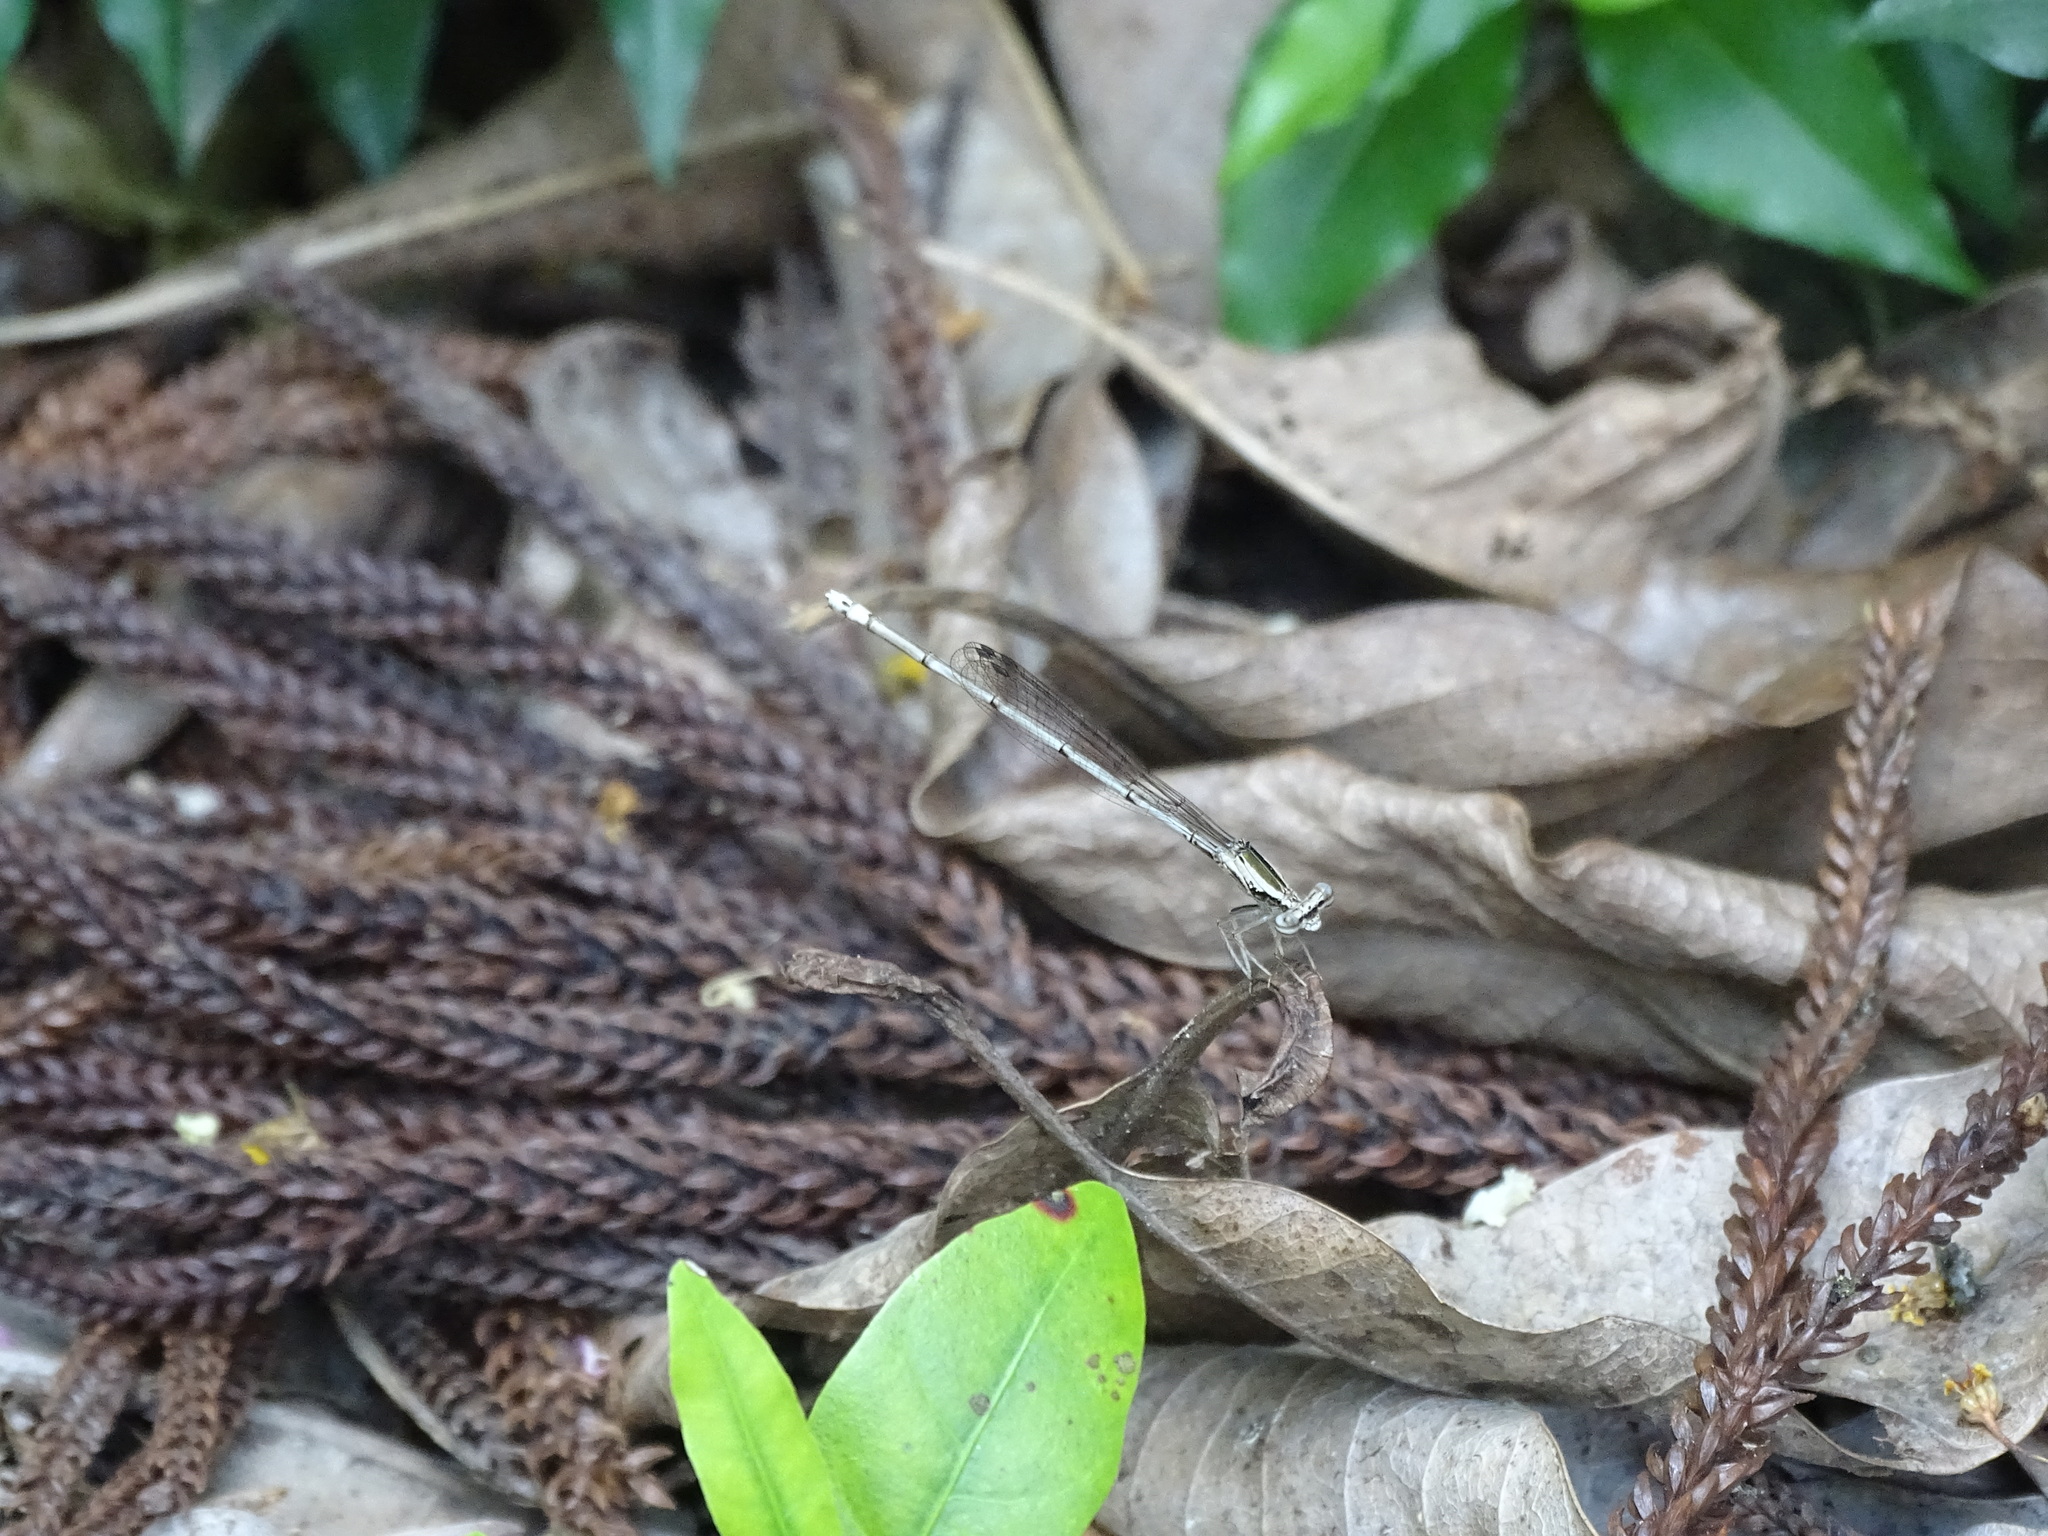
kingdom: Animalia
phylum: Arthropoda
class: Insecta
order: Odonata
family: Platycnemididae
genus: Copera
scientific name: Copera marginipes
